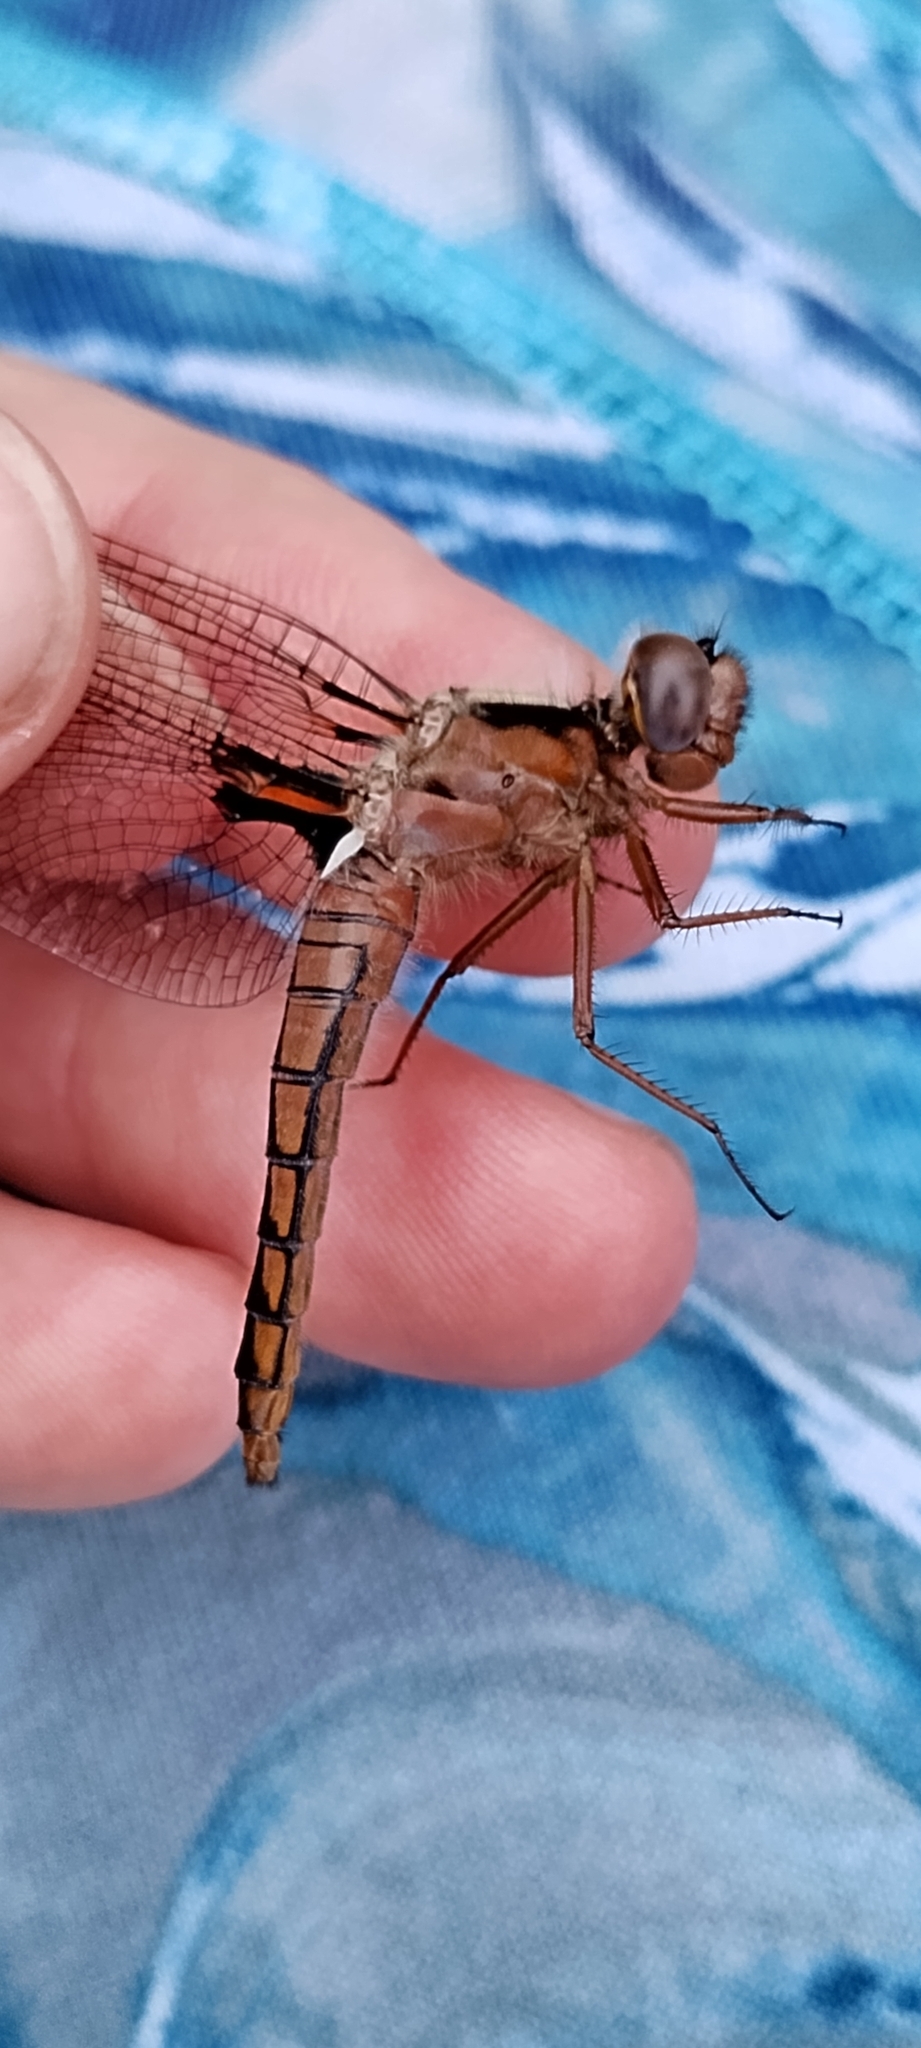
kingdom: Animalia
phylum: Arthropoda
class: Insecta
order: Odonata
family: Libellulidae
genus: Ladona
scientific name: Ladona deplanata
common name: Blue corporal
